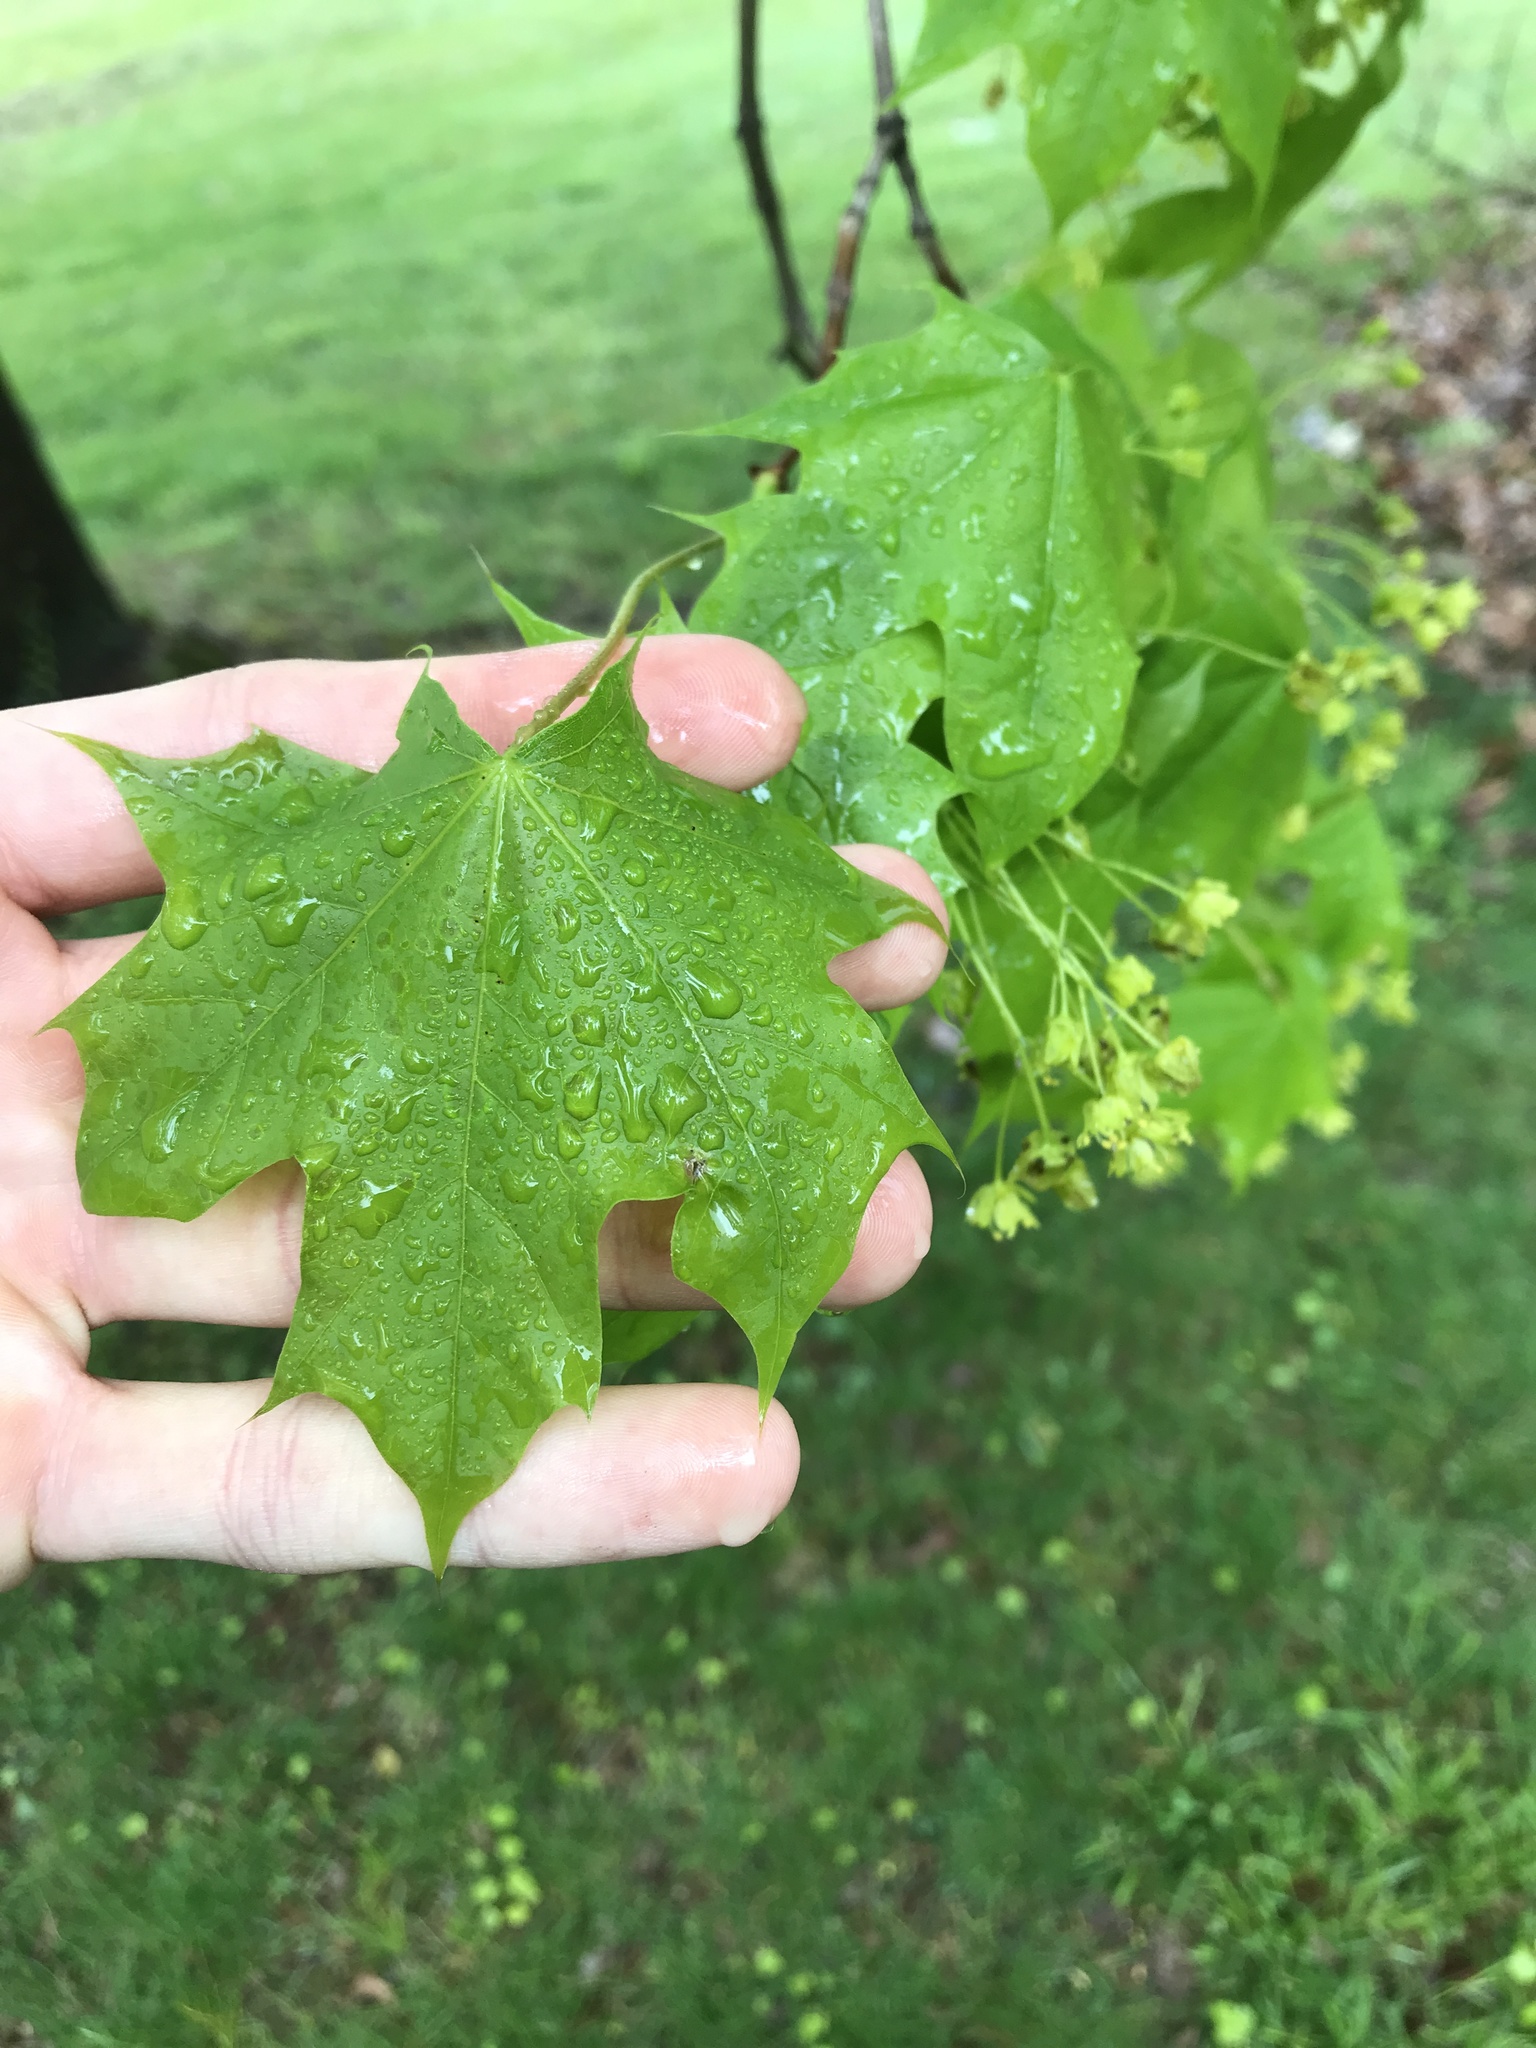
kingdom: Plantae
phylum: Tracheophyta
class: Magnoliopsida
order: Sapindales
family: Sapindaceae
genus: Acer
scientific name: Acer platanoides
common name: Norway maple
